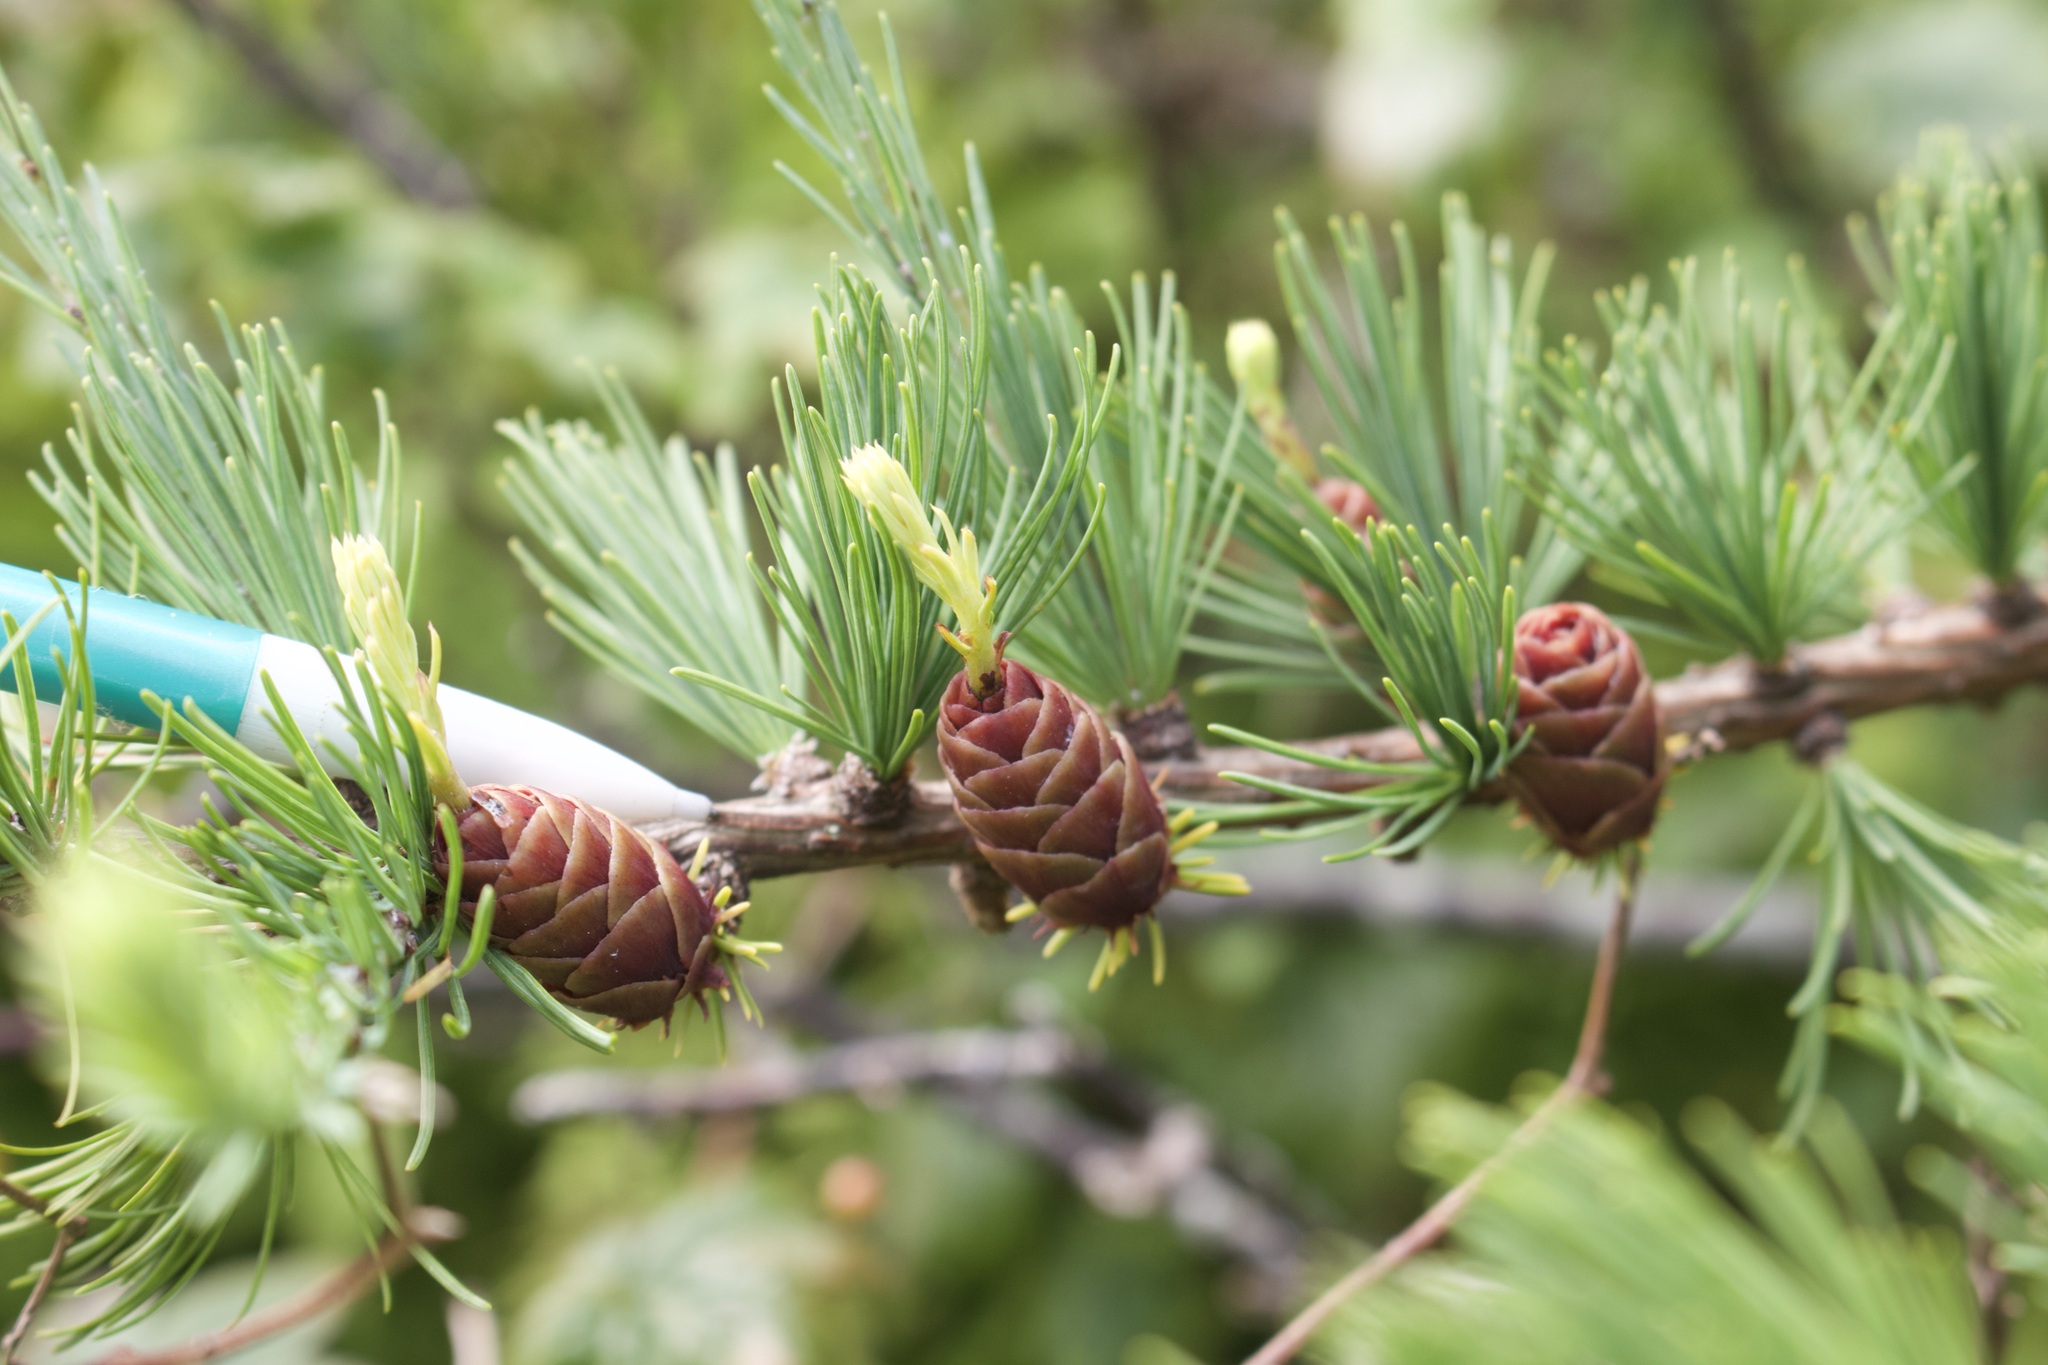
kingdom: Plantae
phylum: Tracheophyta
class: Pinopsida
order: Pinales
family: Pinaceae
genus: Larix
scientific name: Larix laricina
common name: American larch
